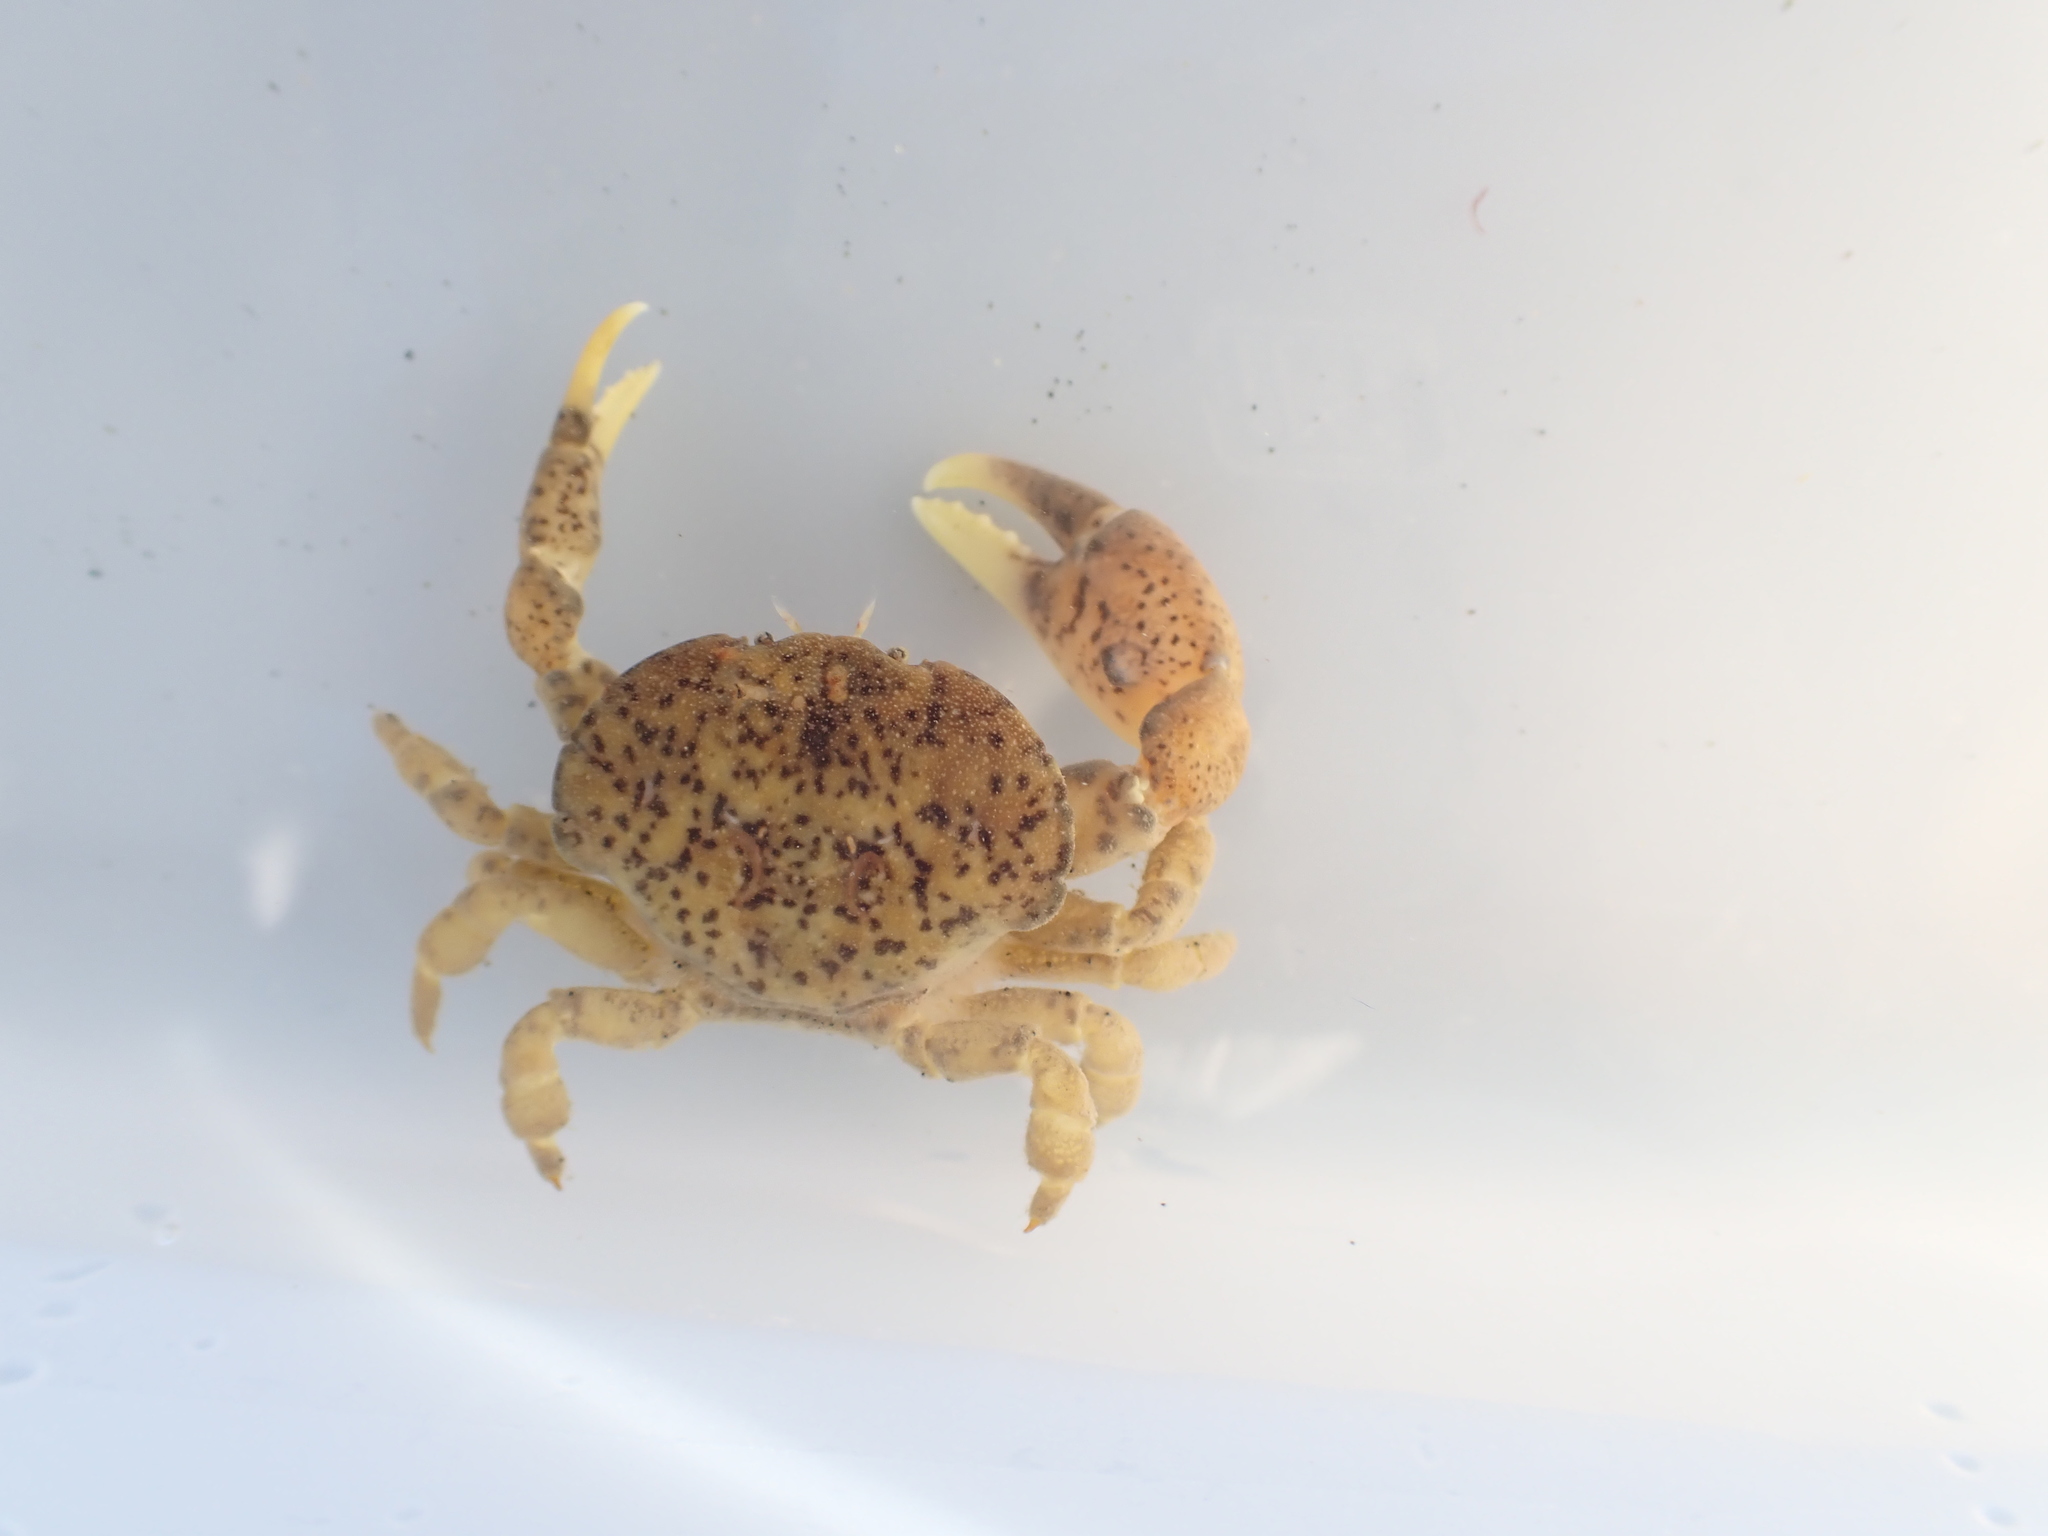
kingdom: Animalia
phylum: Arthropoda
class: Malacostraca
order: Decapoda
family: Heteroziidae
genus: Heterozius
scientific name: Heterozius rotundifrons
